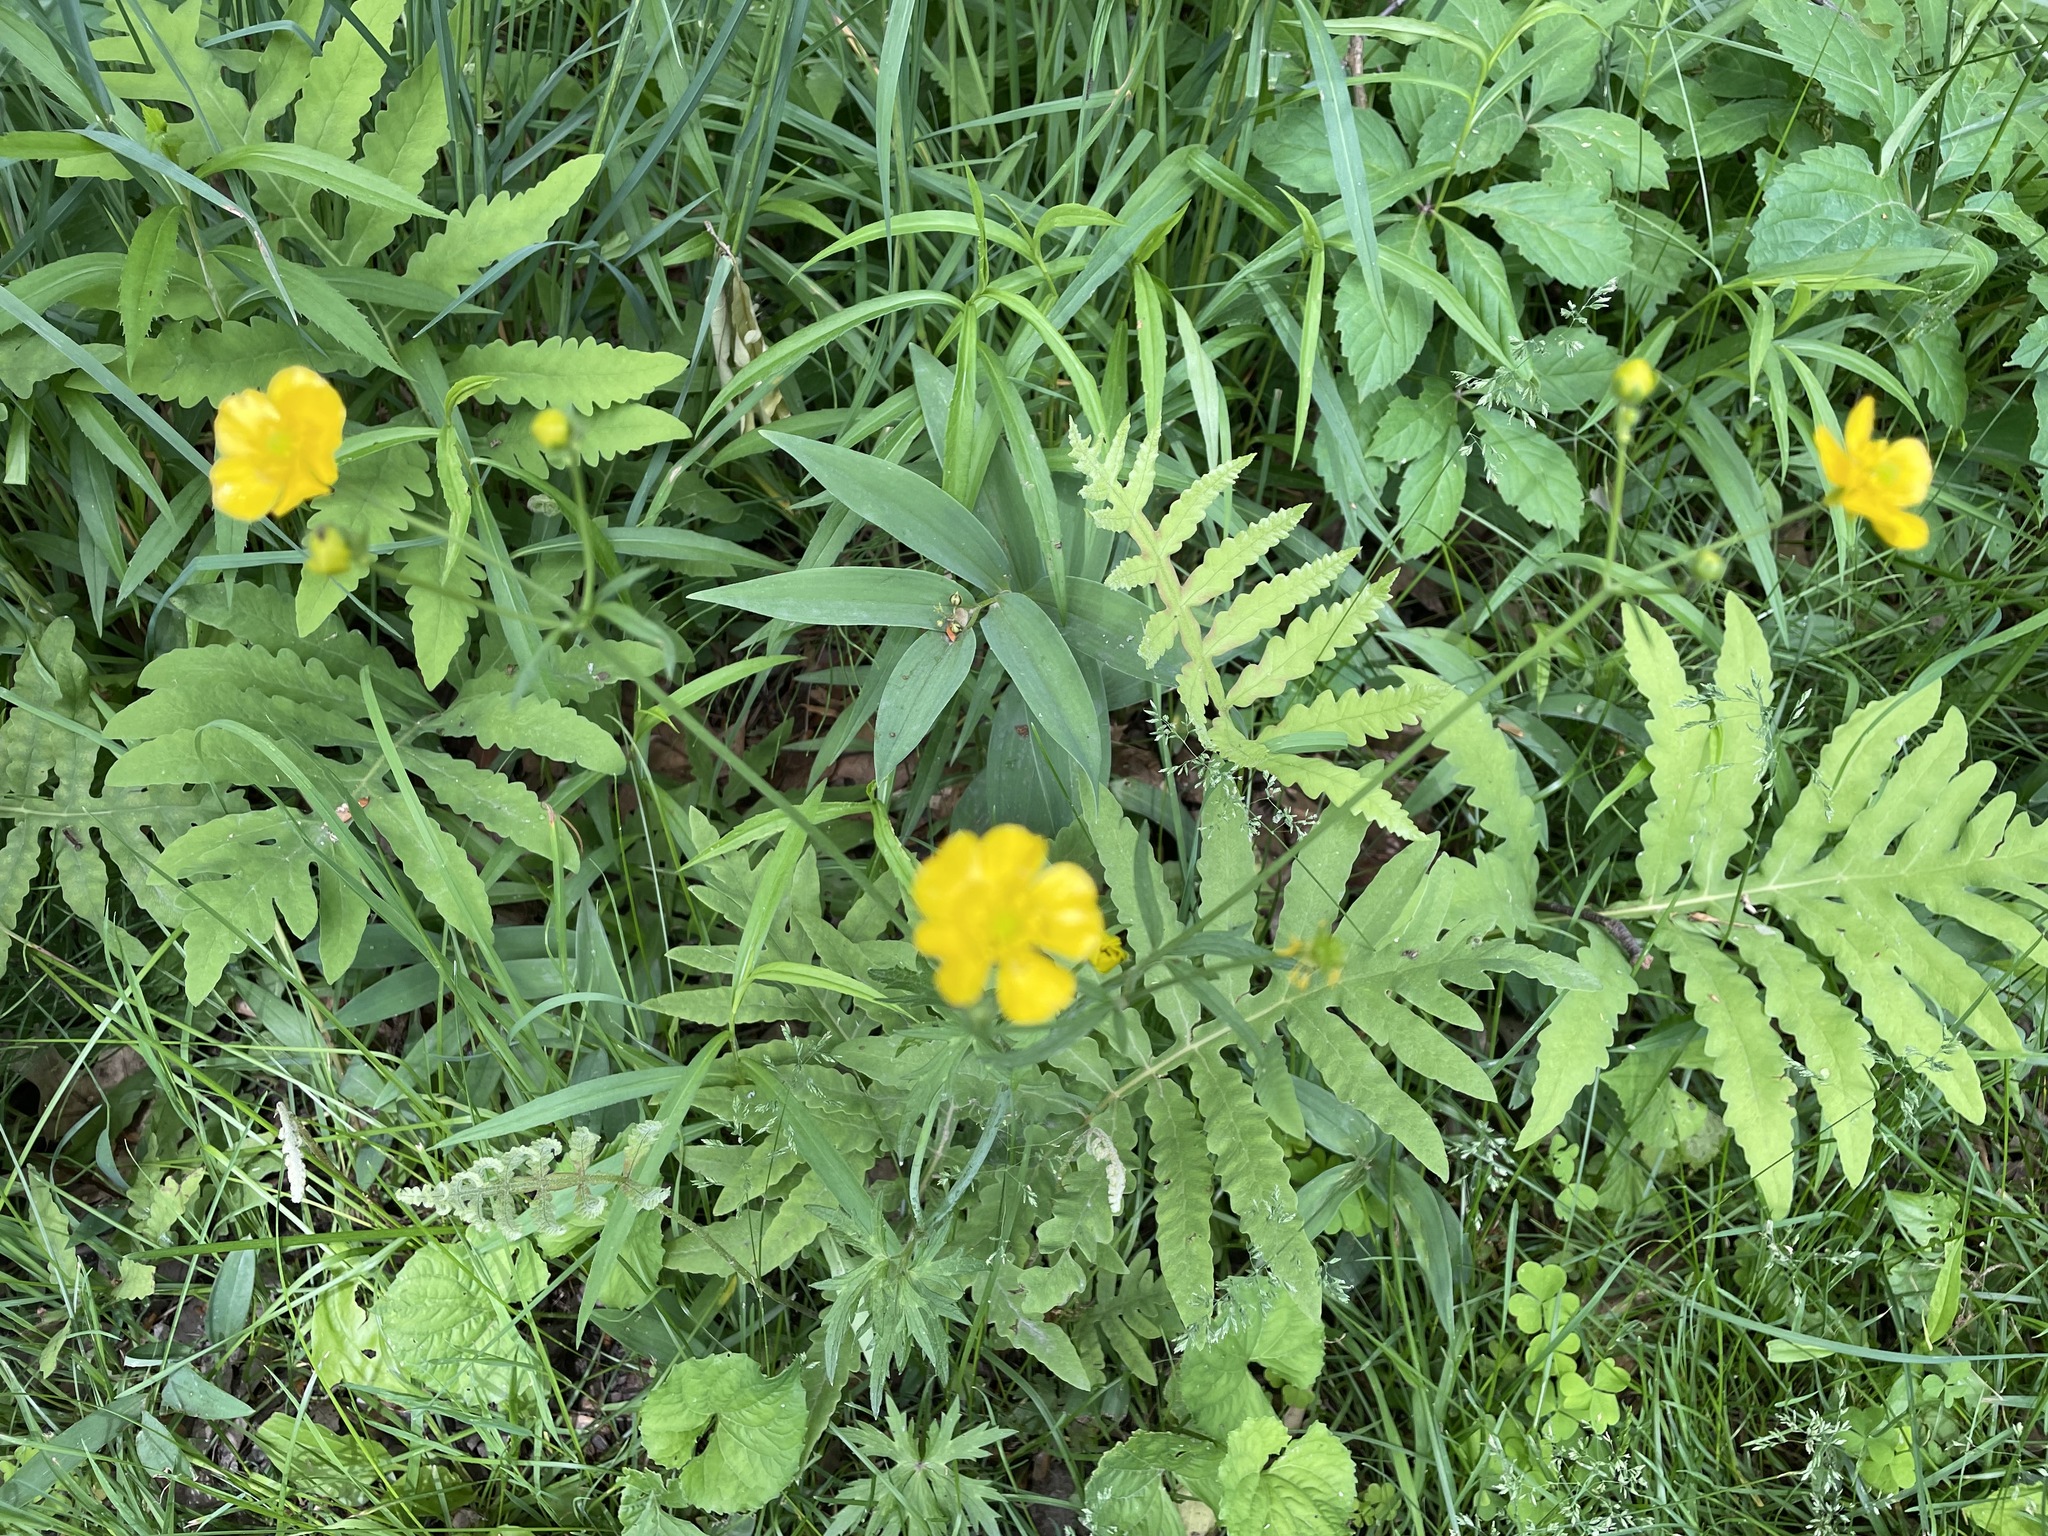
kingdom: Plantae
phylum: Tracheophyta
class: Magnoliopsida
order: Ranunculales
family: Ranunculaceae
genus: Ranunculus
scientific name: Ranunculus acris
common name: Meadow buttercup
